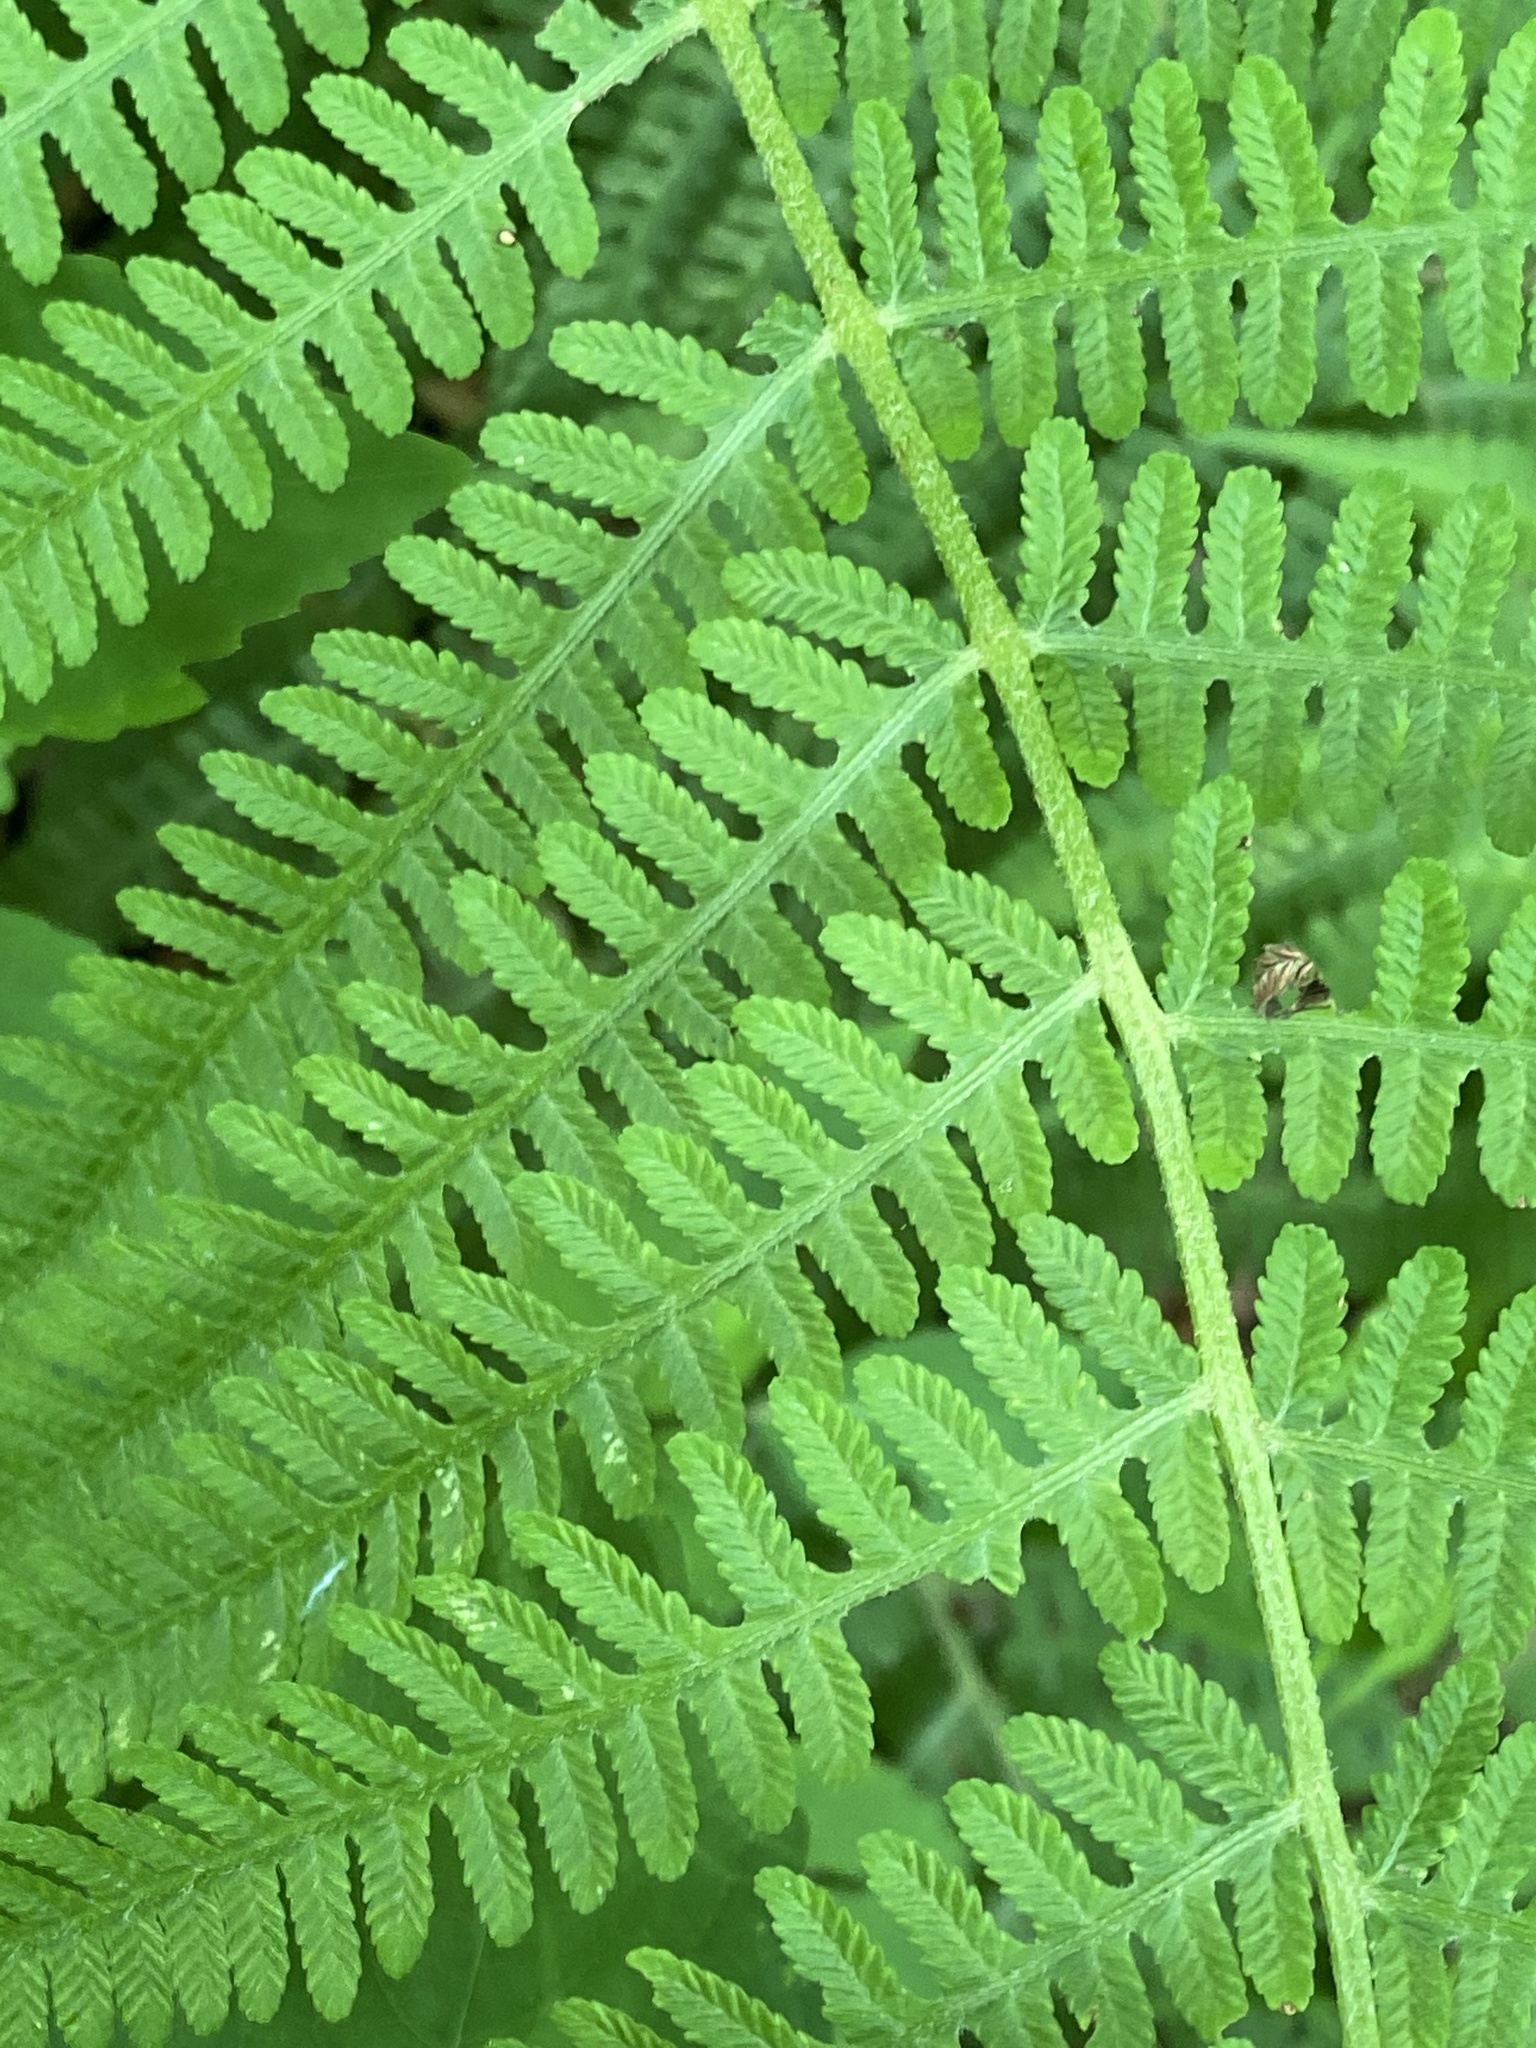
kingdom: Plantae
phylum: Tracheophyta
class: Polypodiopsida
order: Polypodiales
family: Athyriaceae
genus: Deparia
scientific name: Deparia acrostichoides
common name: Silver false spleenwort
